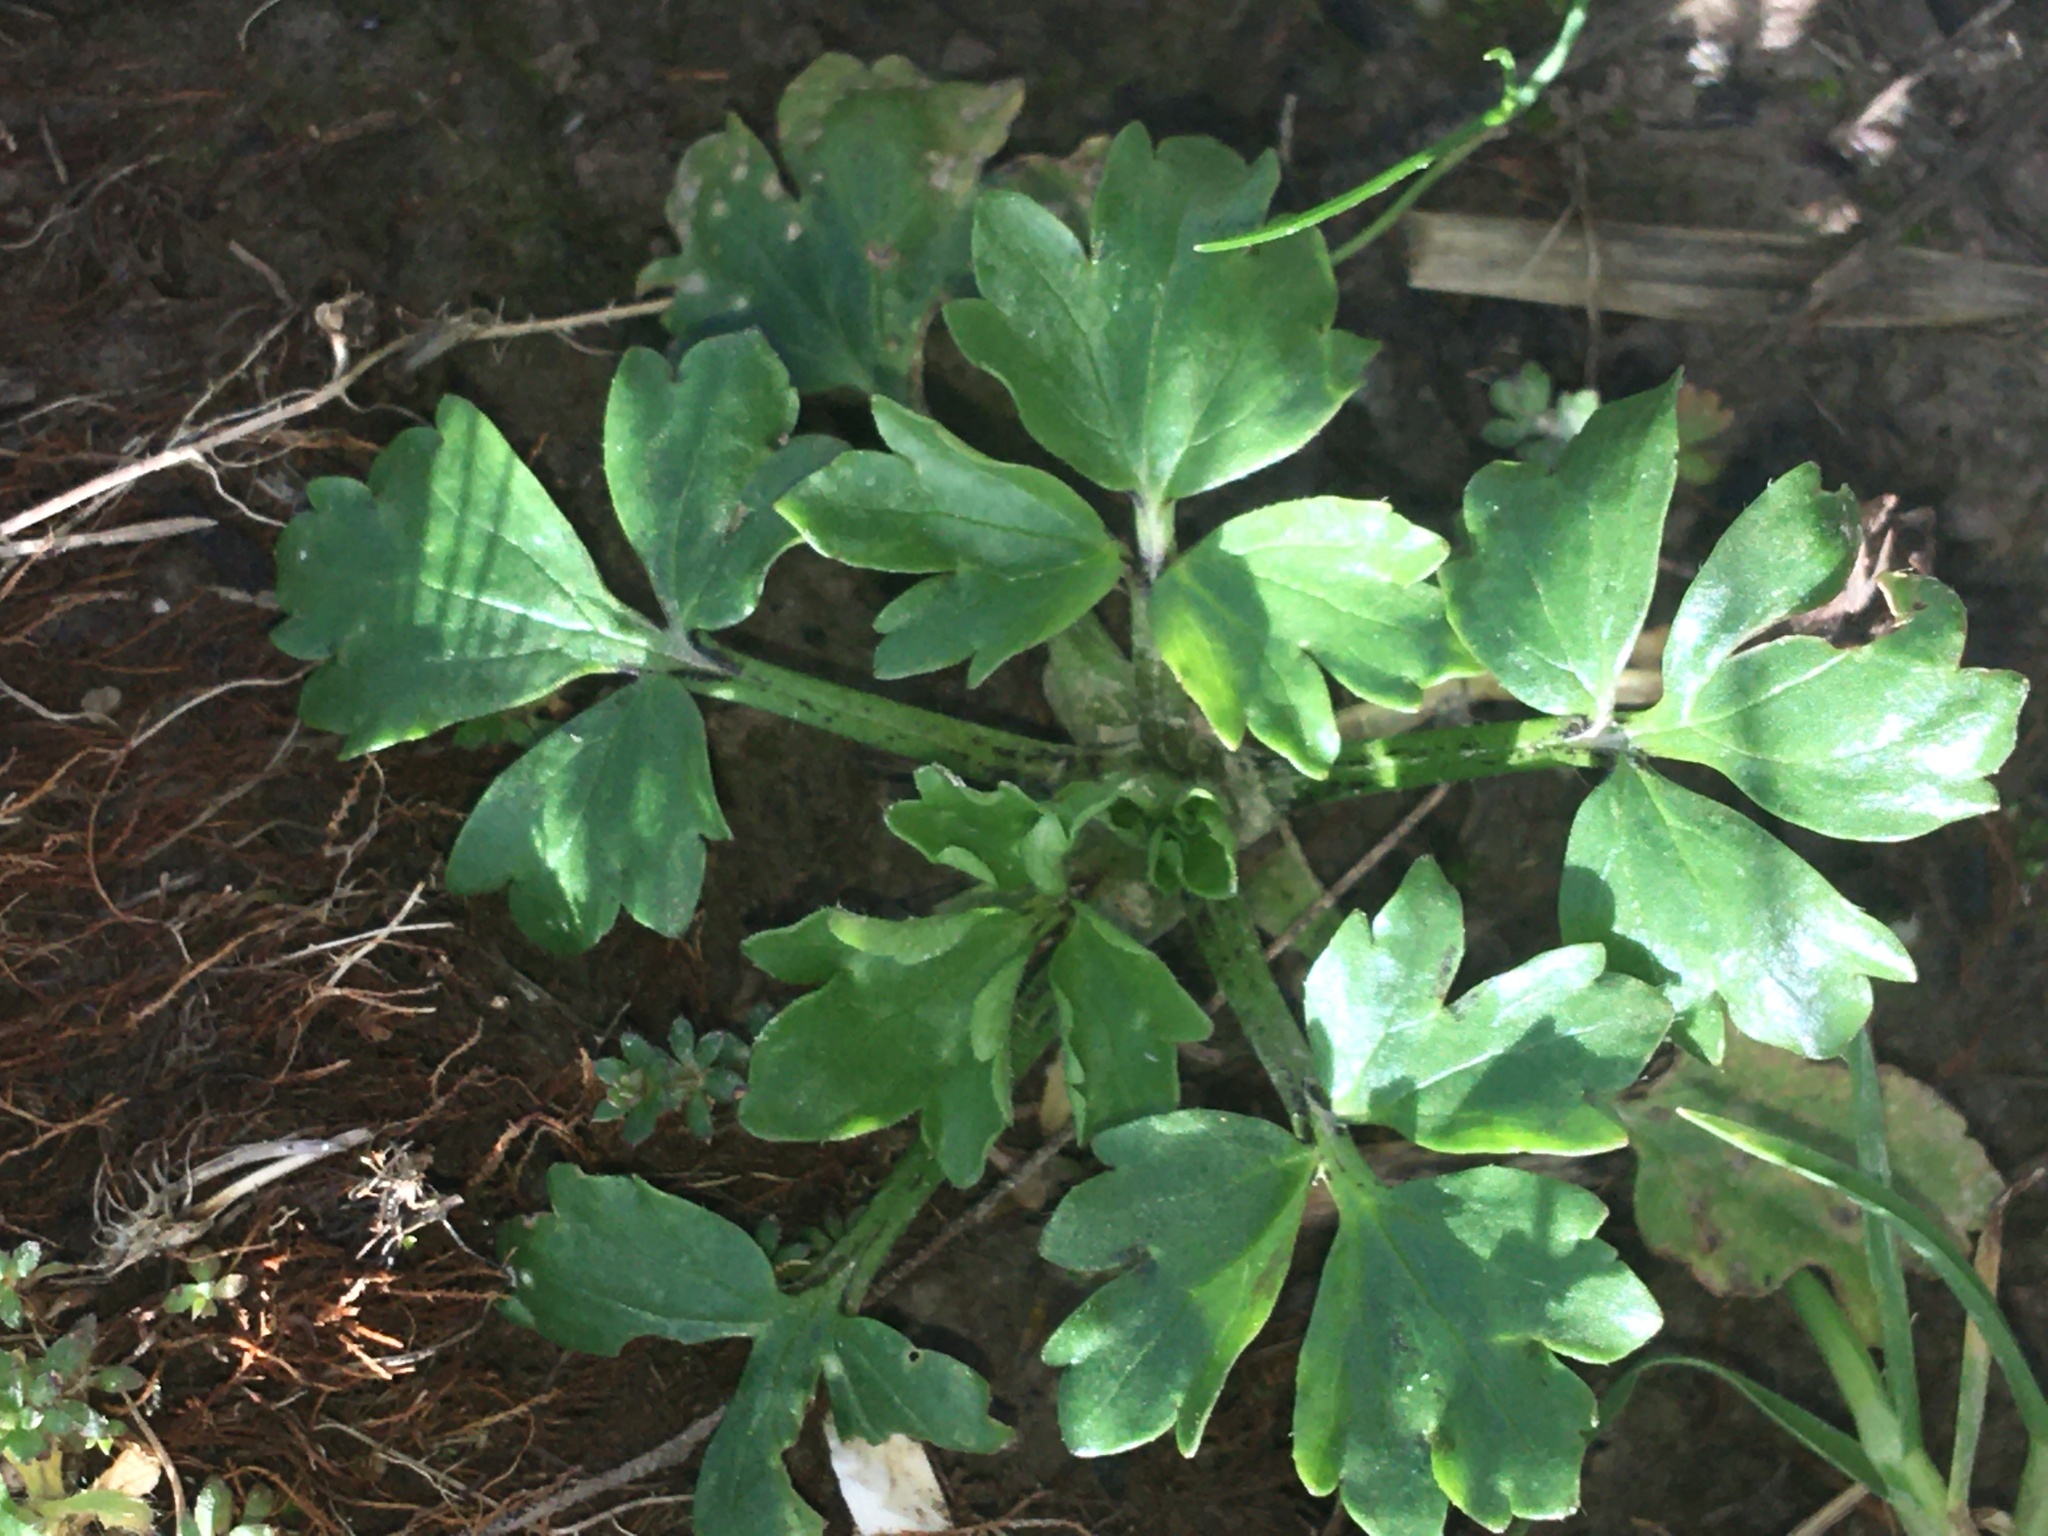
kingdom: Plantae
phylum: Tracheophyta
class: Magnoliopsida
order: Ranunculales
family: Ranunculaceae
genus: Ranunculus
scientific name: Ranunculus hispidus
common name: Bristly buttercup
